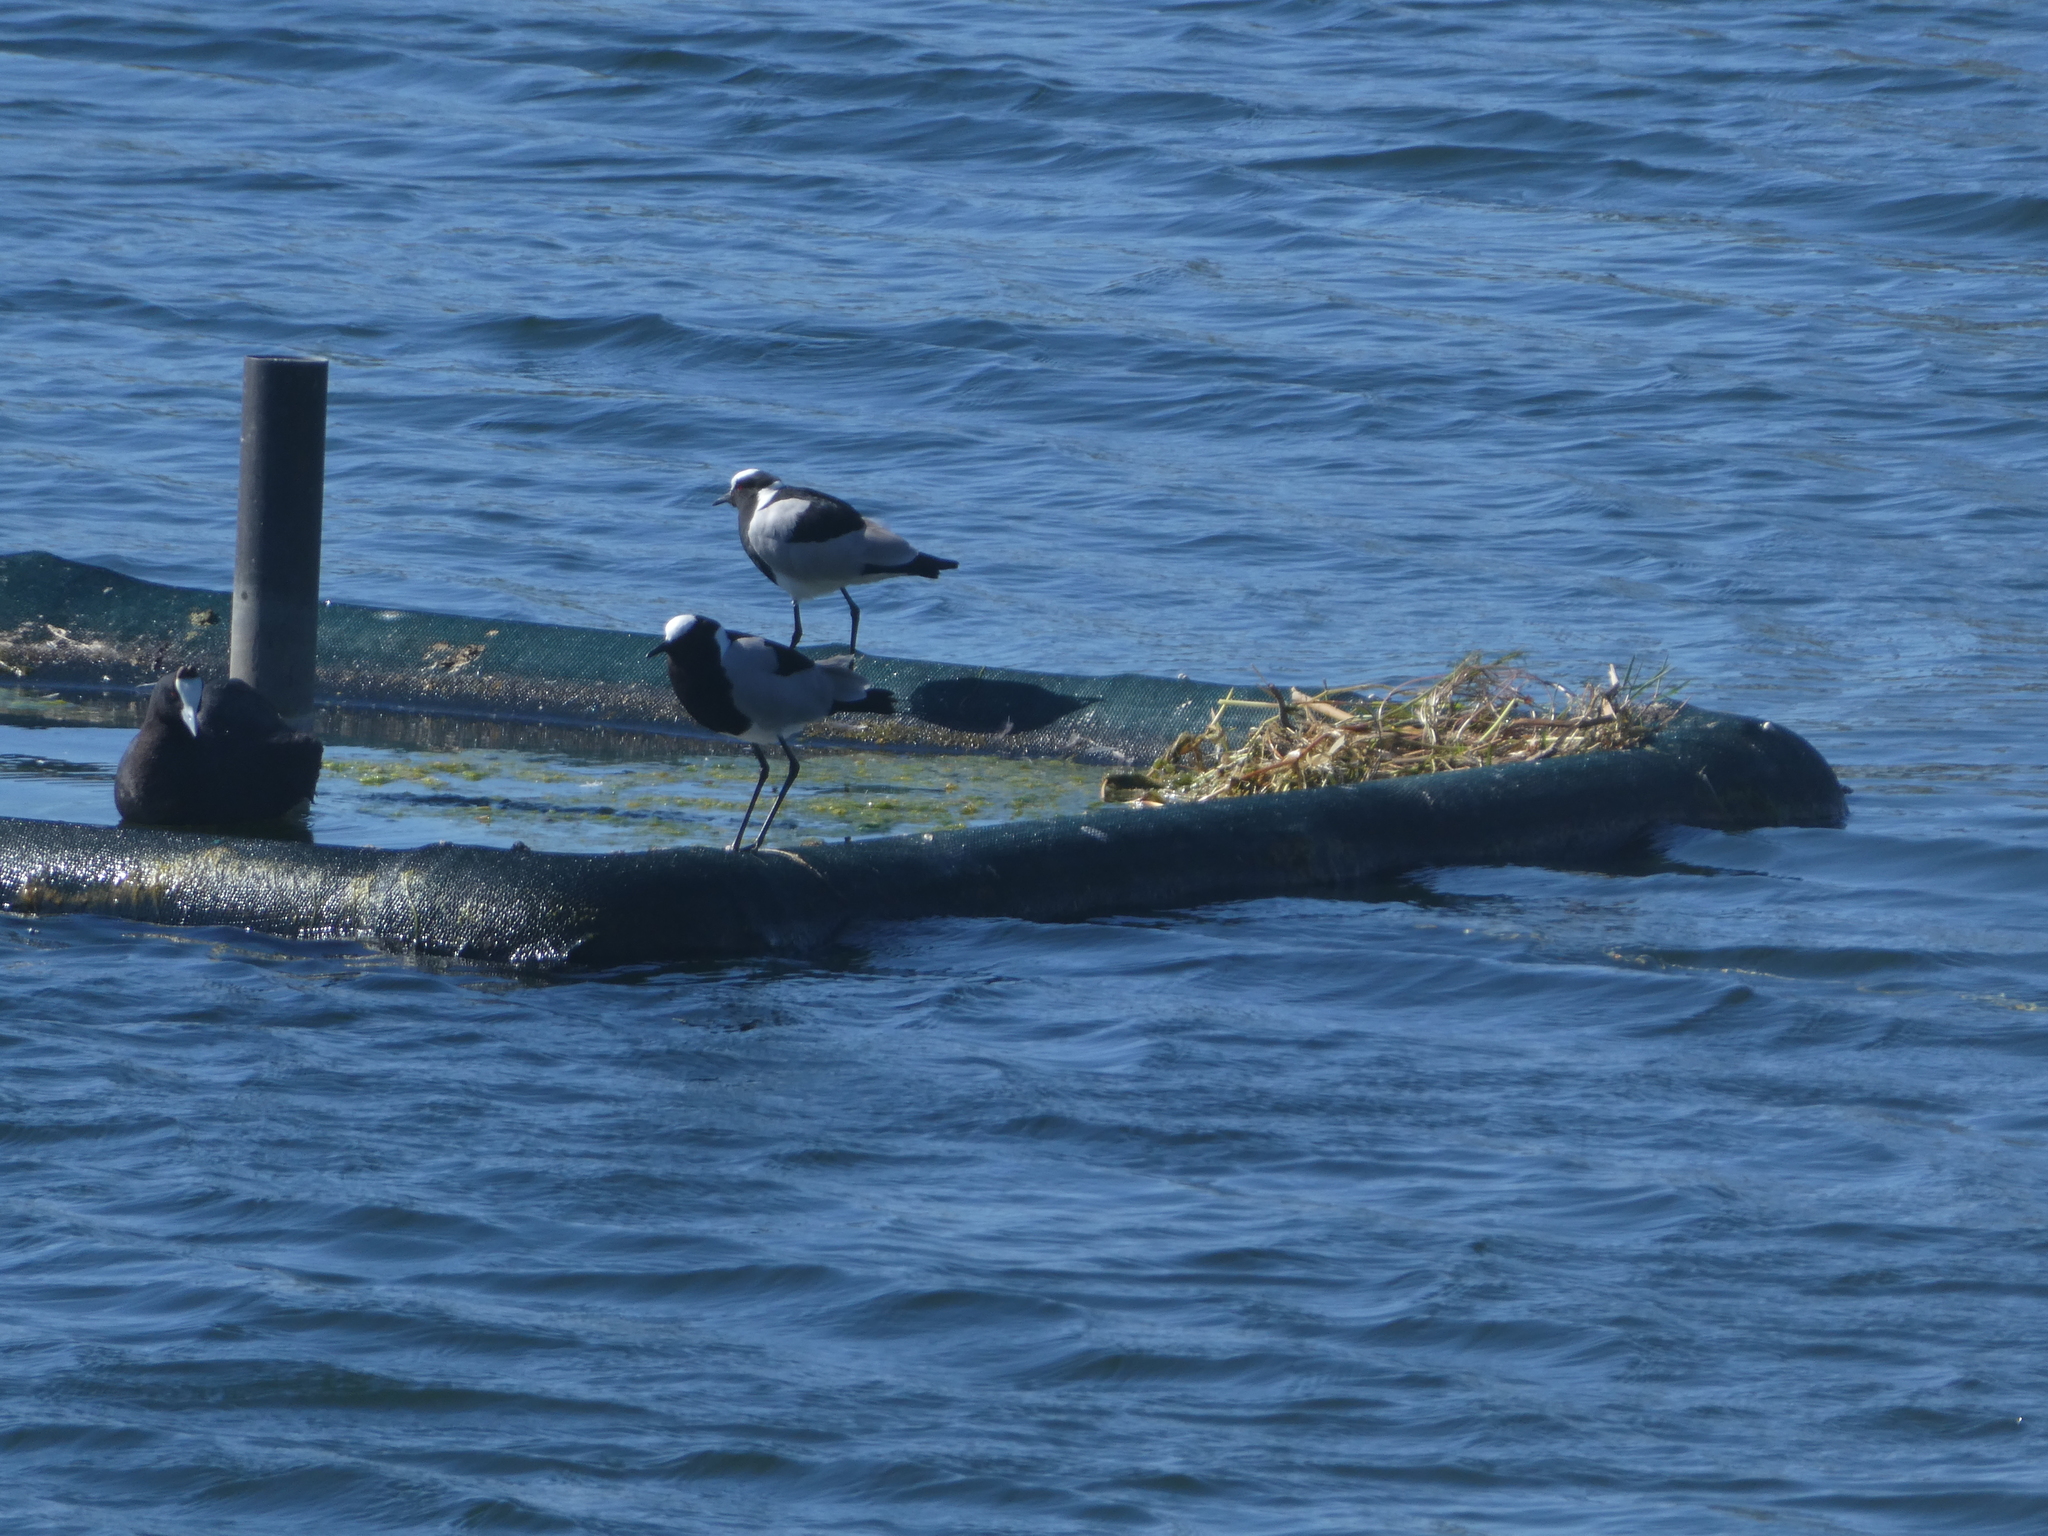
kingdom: Animalia
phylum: Chordata
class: Aves
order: Charadriiformes
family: Charadriidae
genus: Vanellus
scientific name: Vanellus armatus
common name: Blacksmith lapwing
